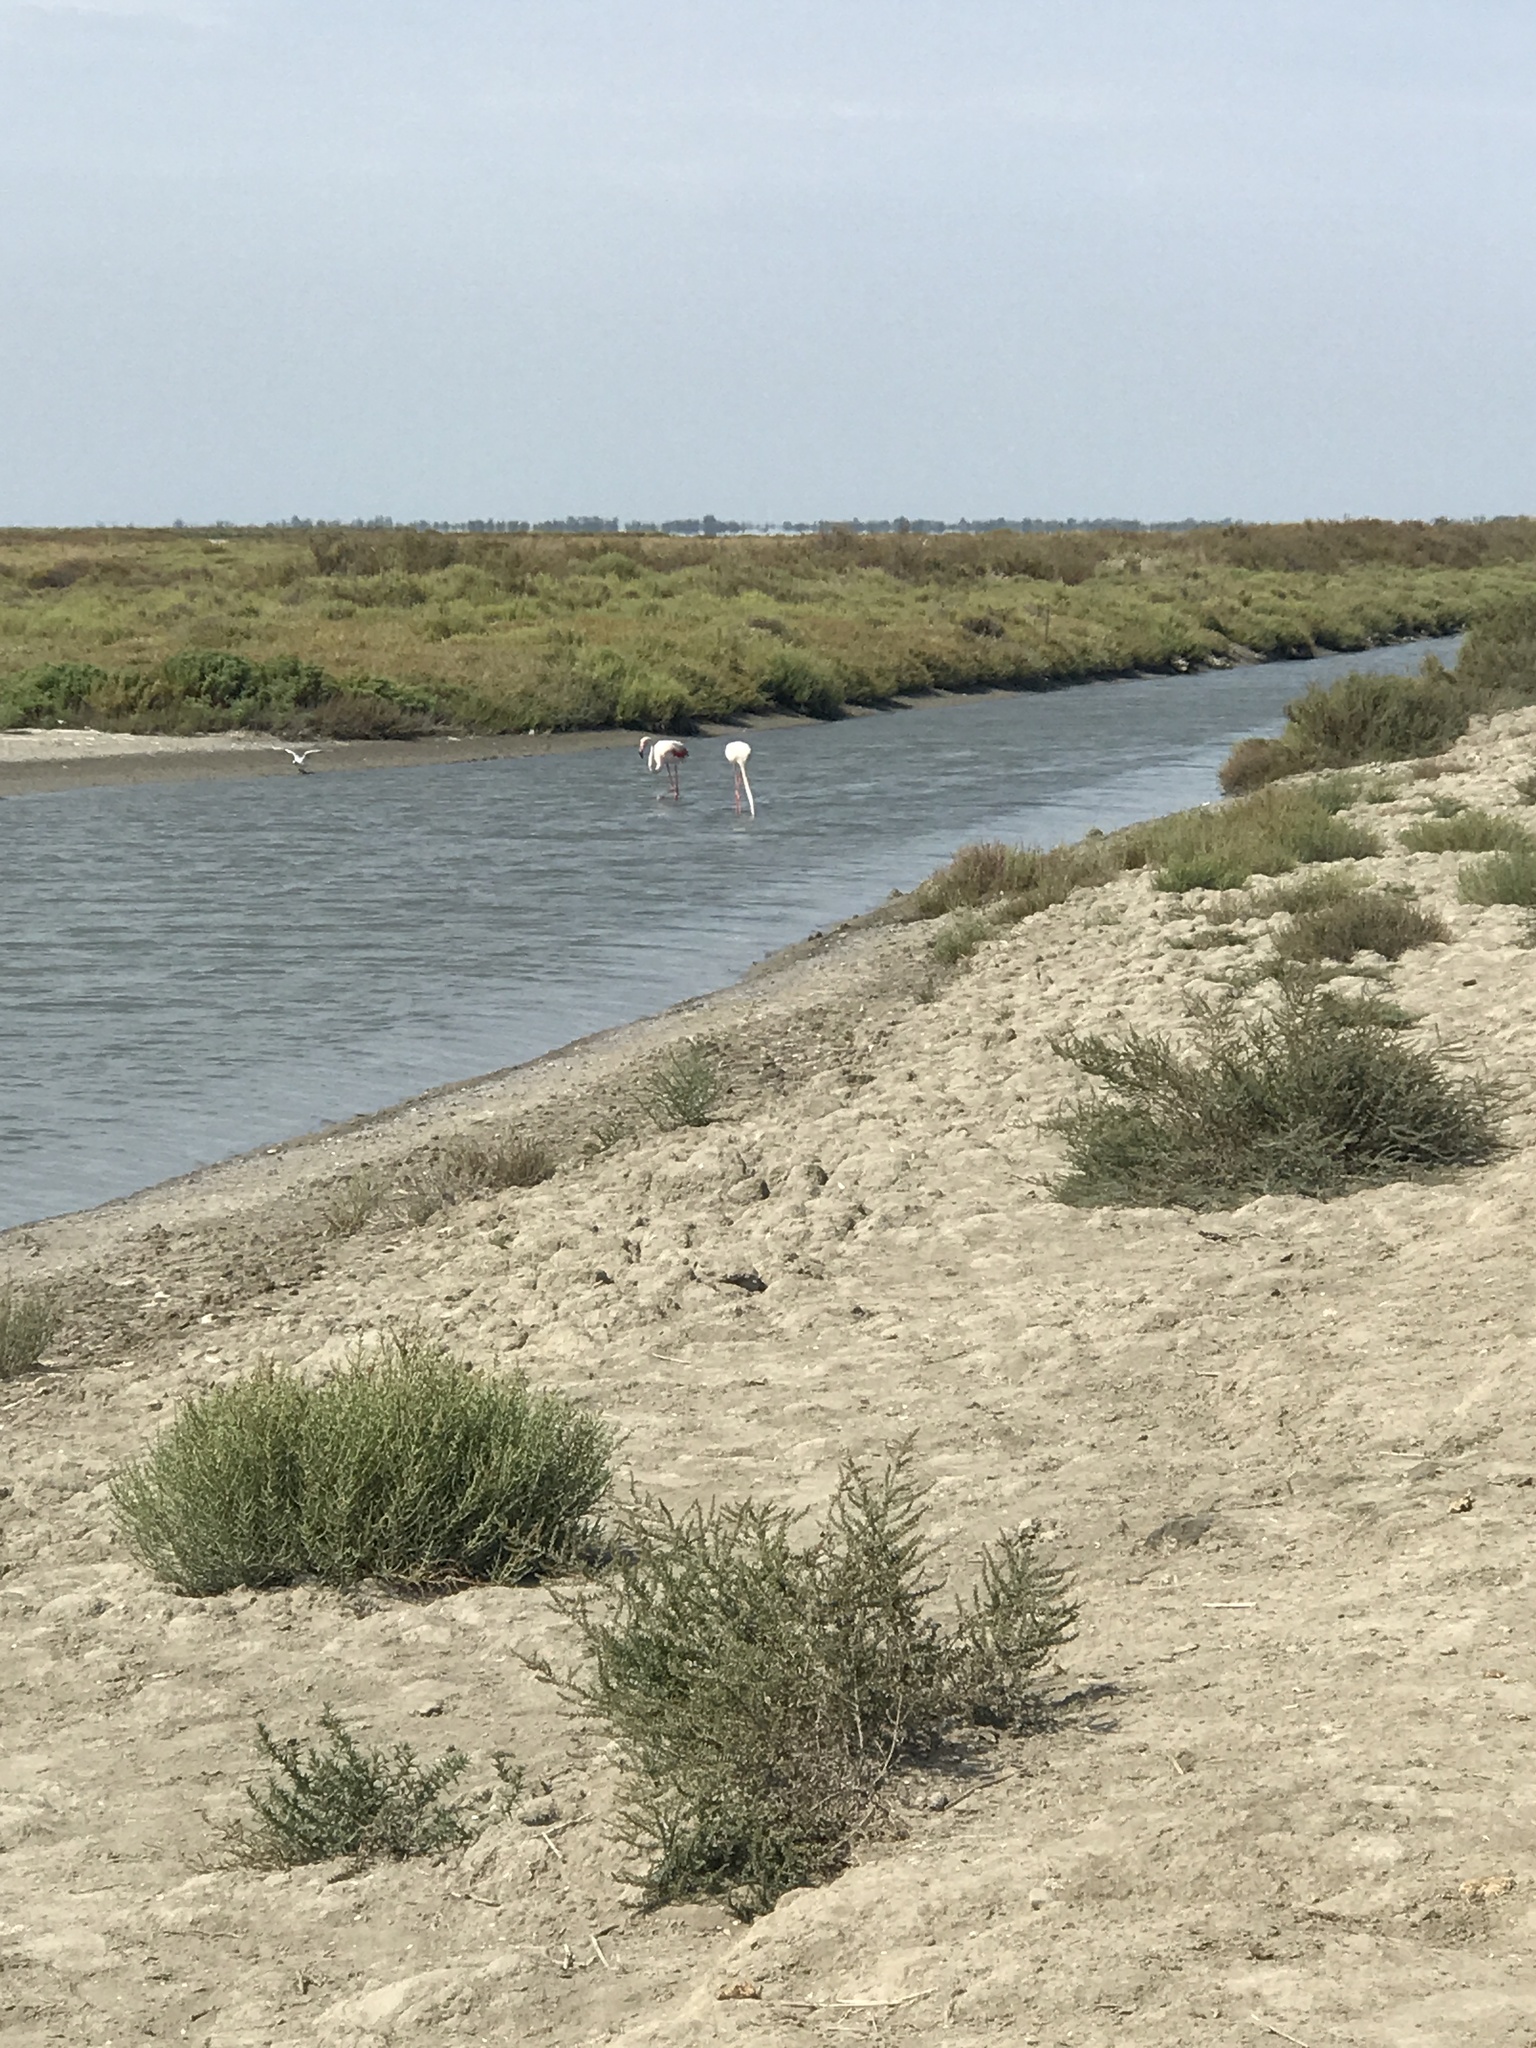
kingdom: Animalia
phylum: Chordata
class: Aves
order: Phoenicopteriformes
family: Phoenicopteridae
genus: Phoenicopterus
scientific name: Phoenicopterus roseus
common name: Greater flamingo
